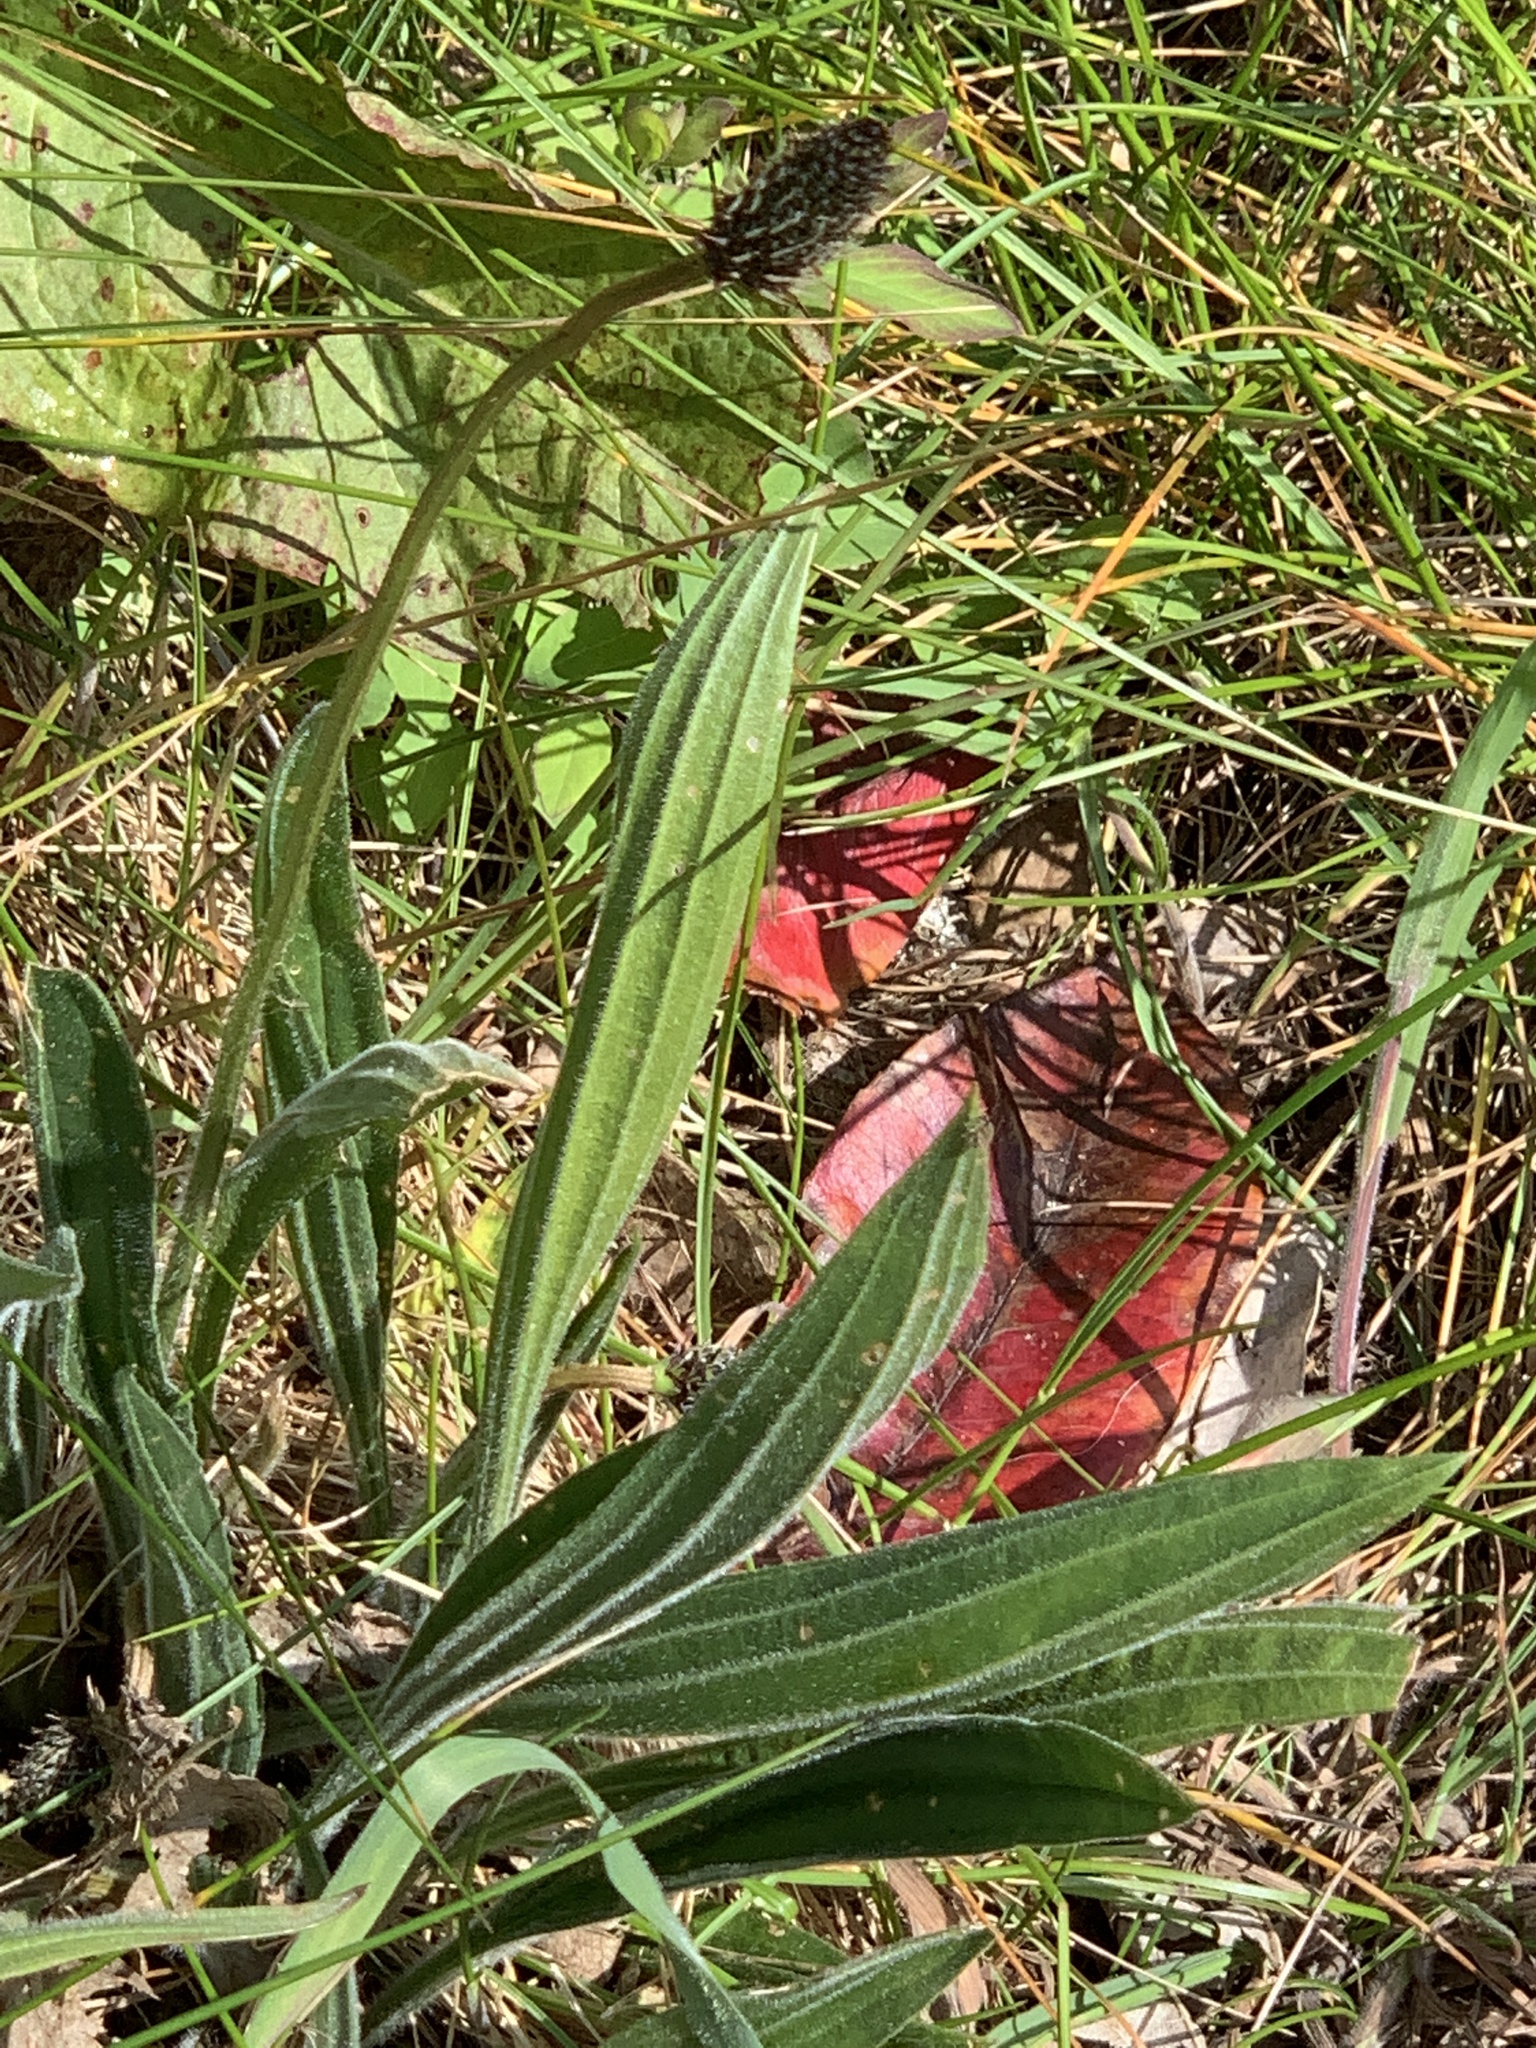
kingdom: Plantae
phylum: Tracheophyta
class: Magnoliopsida
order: Lamiales
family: Plantaginaceae
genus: Plantago
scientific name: Plantago lanceolata
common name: Ribwort plantain
